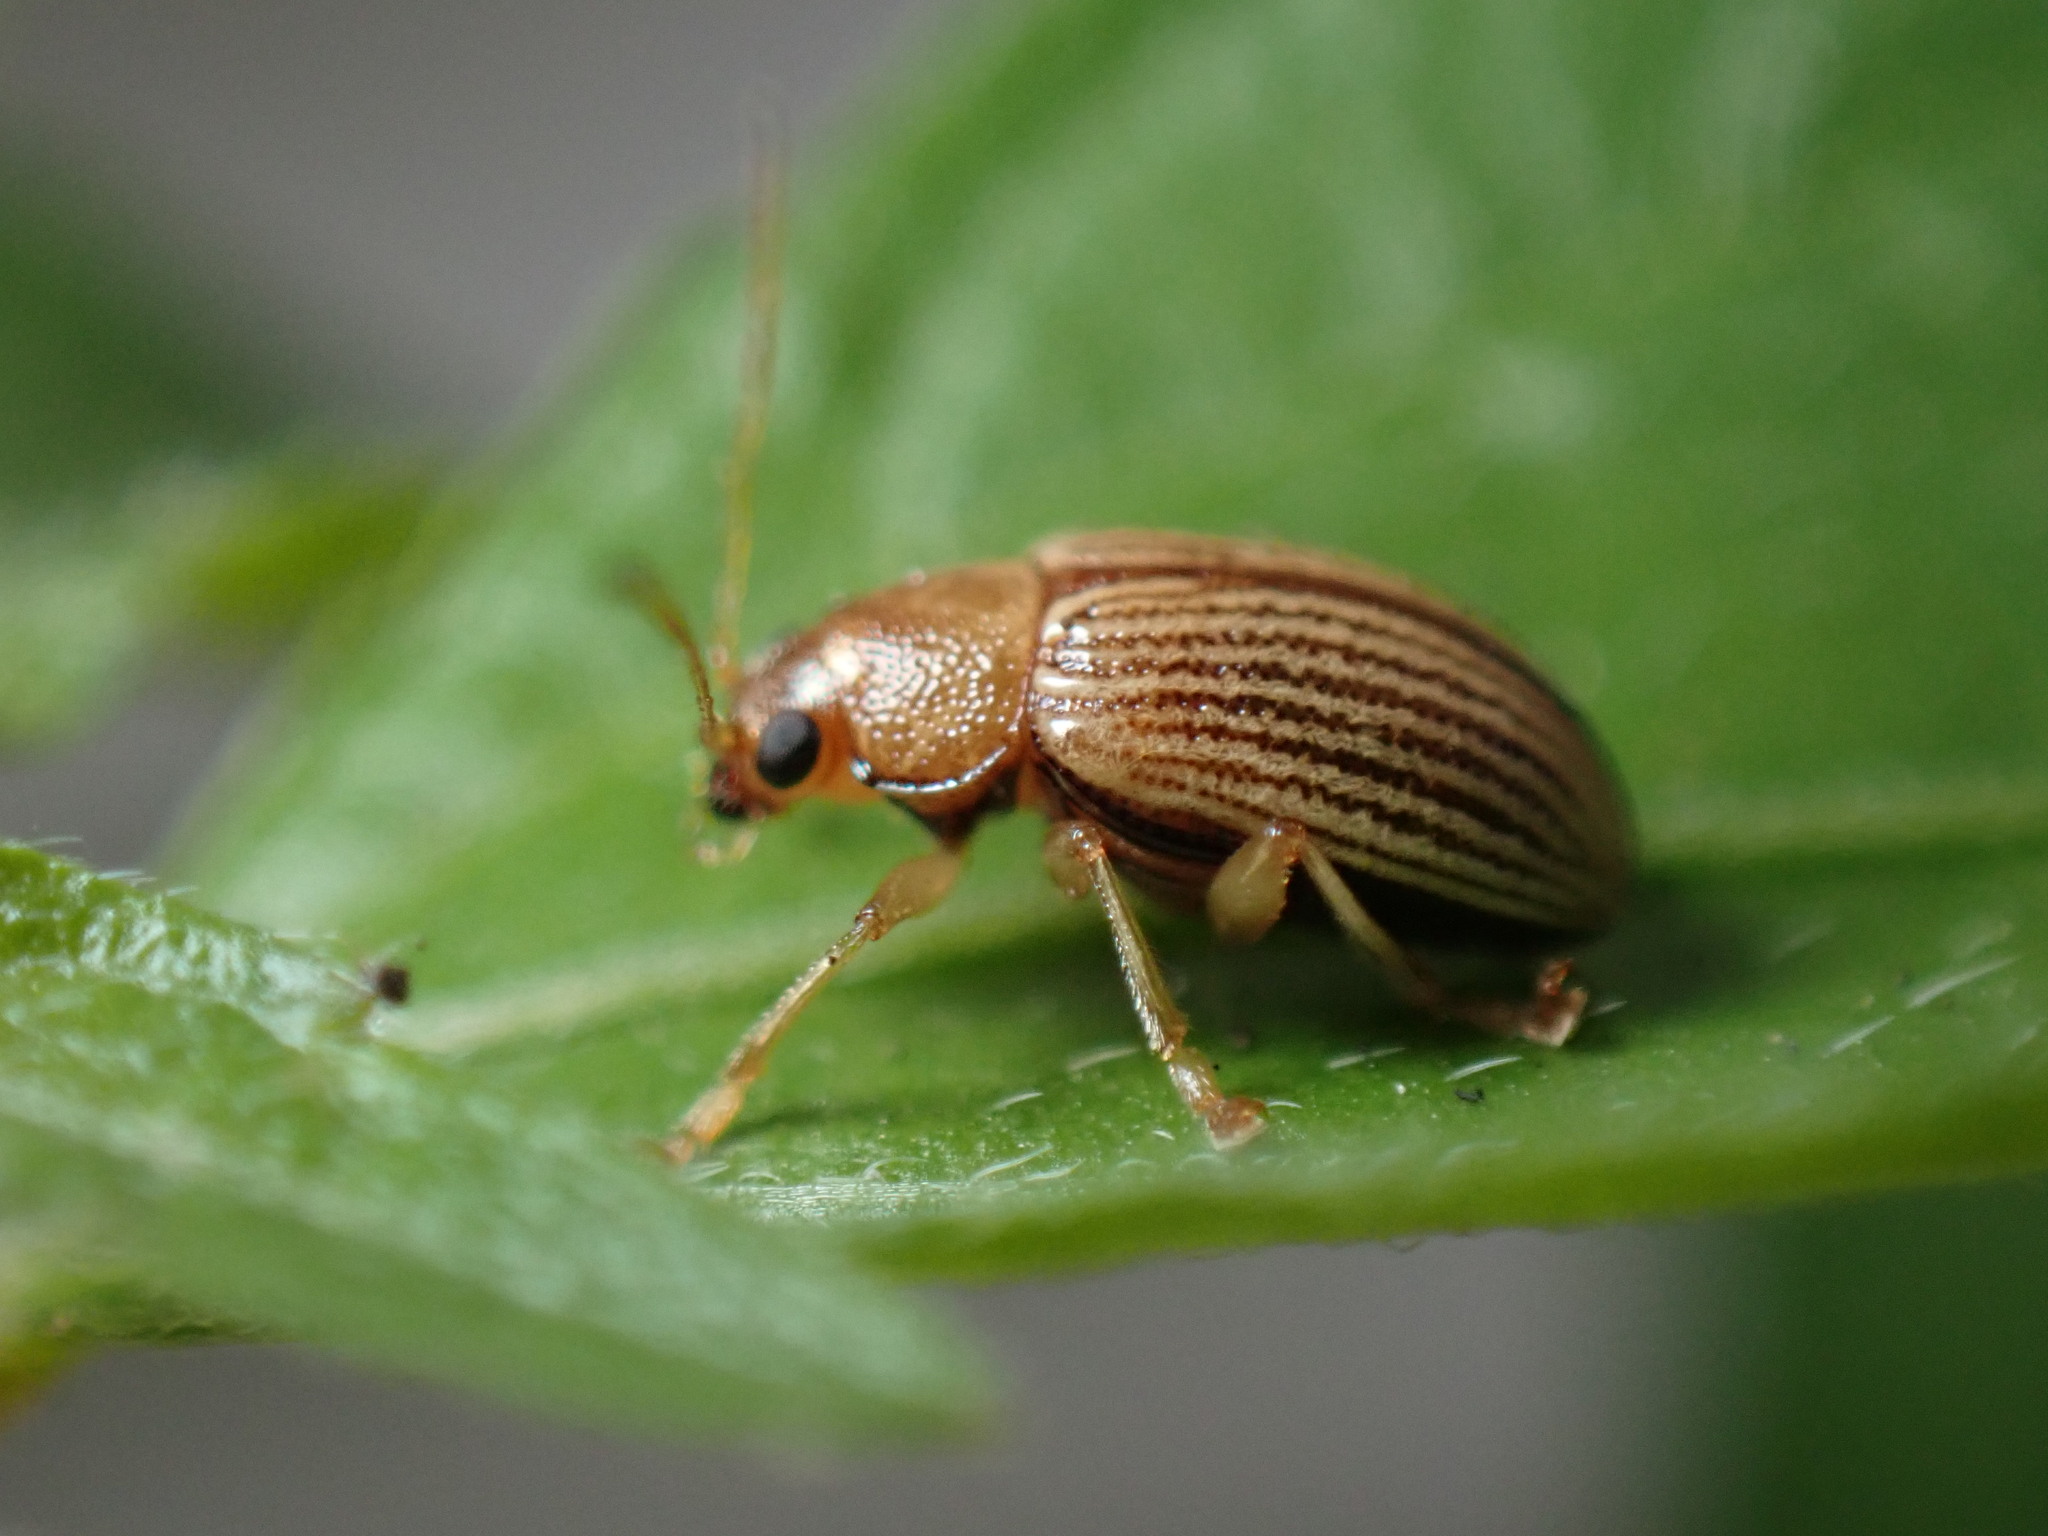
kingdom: Animalia
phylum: Arthropoda
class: Insecta
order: Coleoptera
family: Chrysomelidae
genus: Colaspis
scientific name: Colaspis brunnea
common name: Grape colaspis
